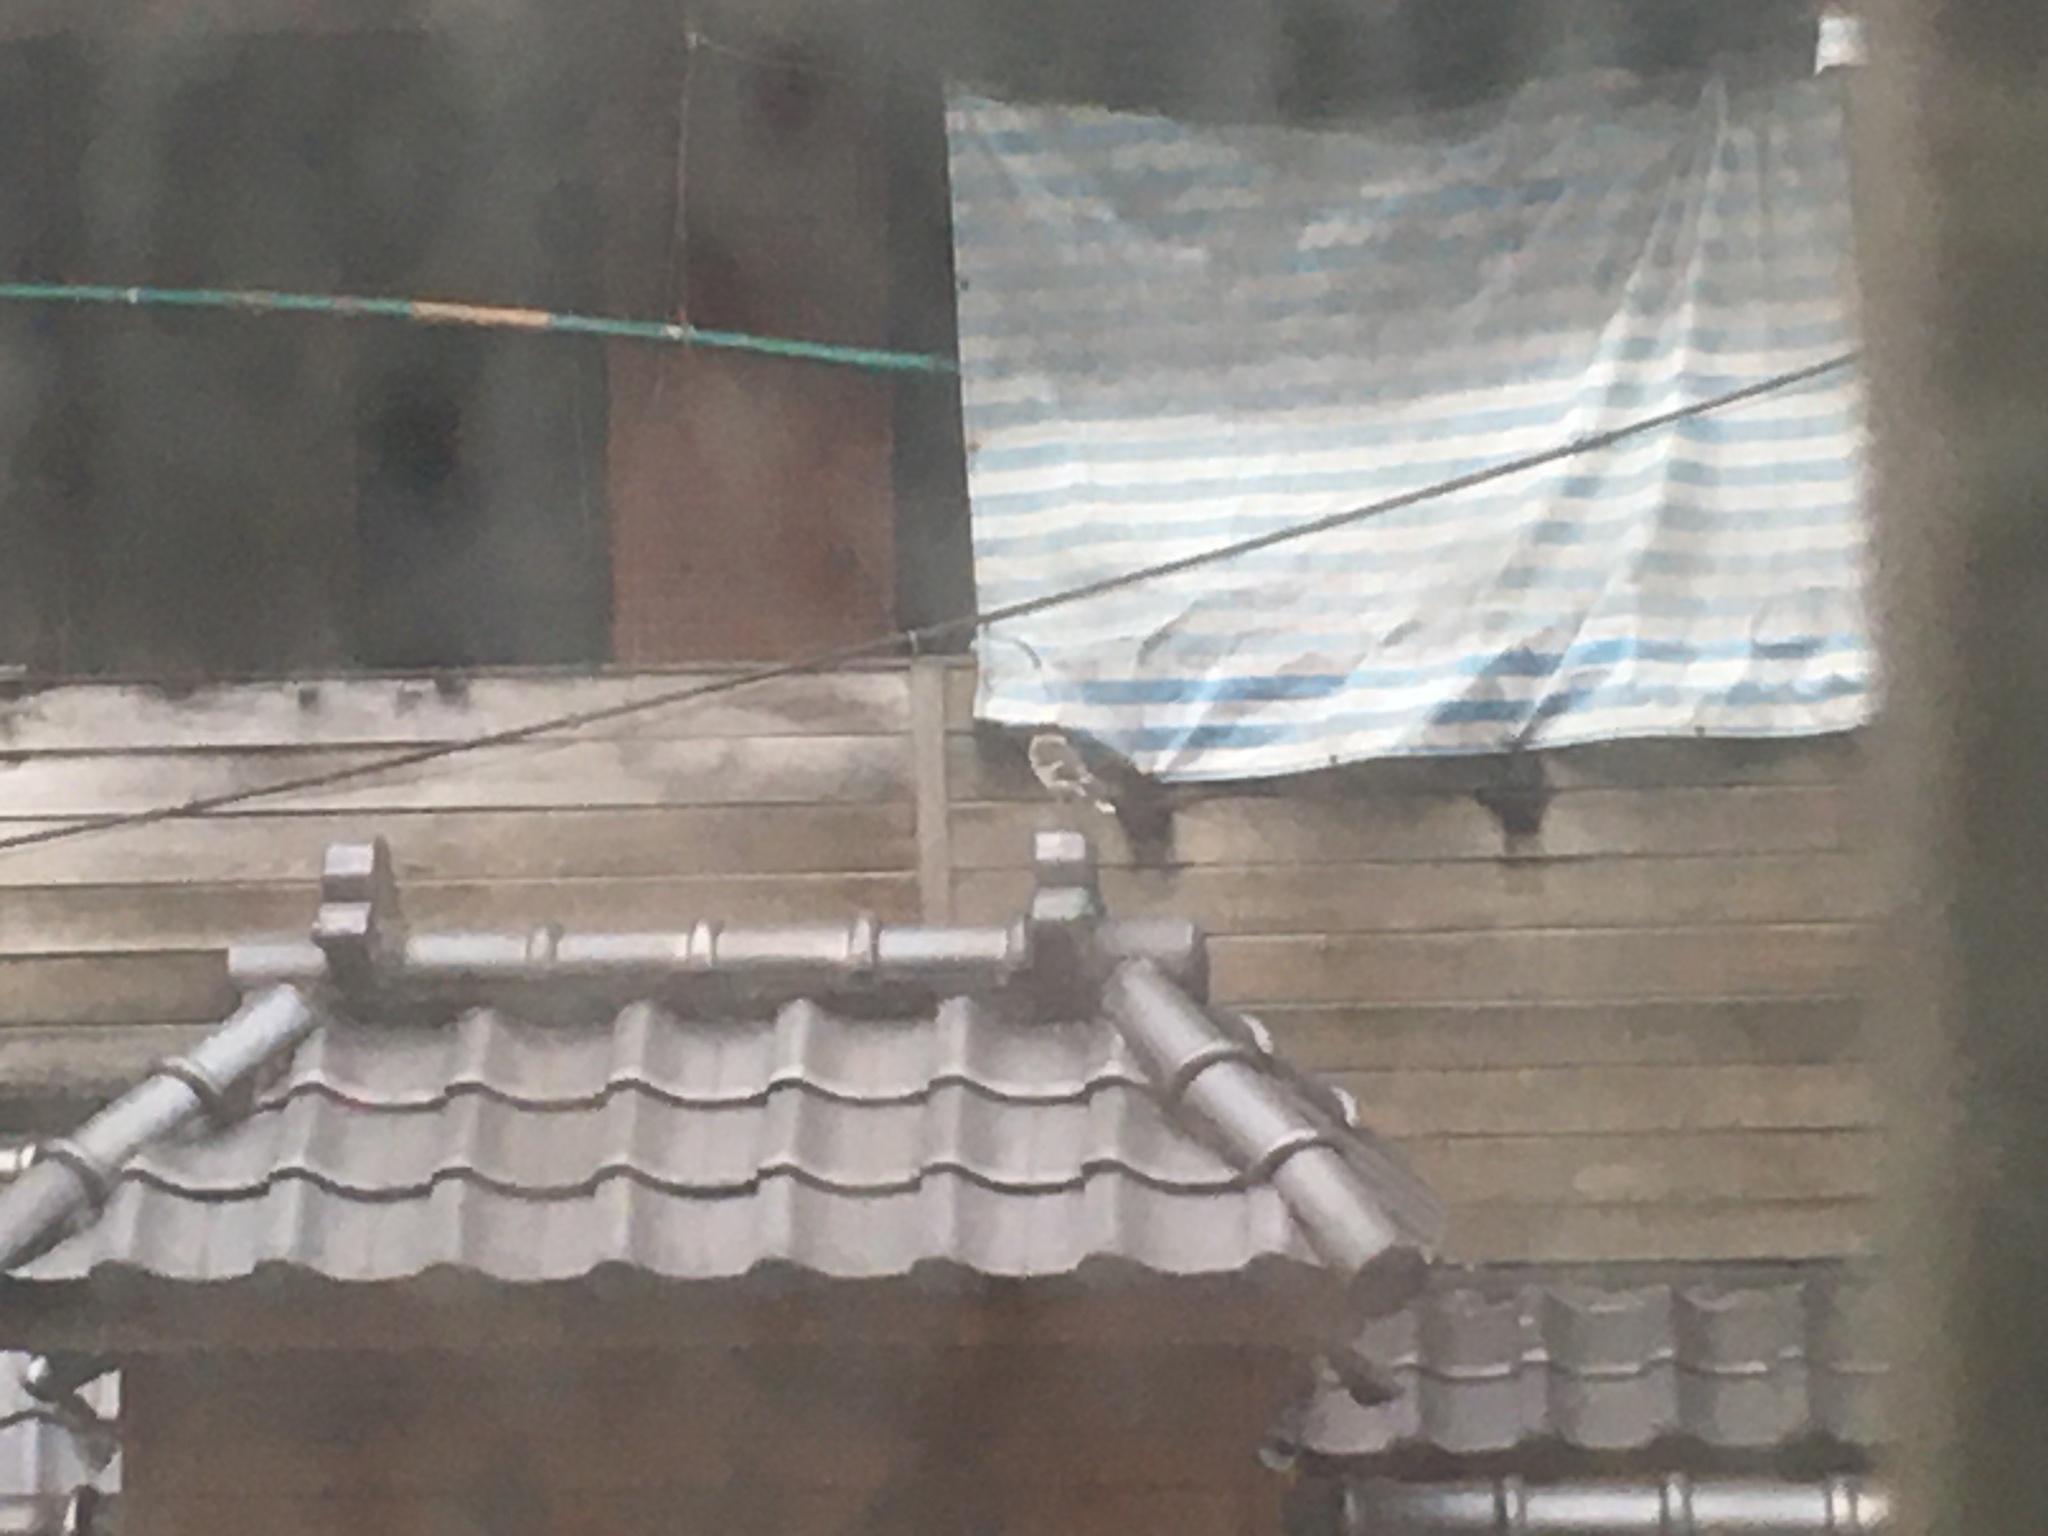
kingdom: Animalia
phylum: Chordata
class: Aves
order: Passeriformes
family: Sturnidae
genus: Gracupica
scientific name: Gracupica nigricollis
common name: Black-collared starling
